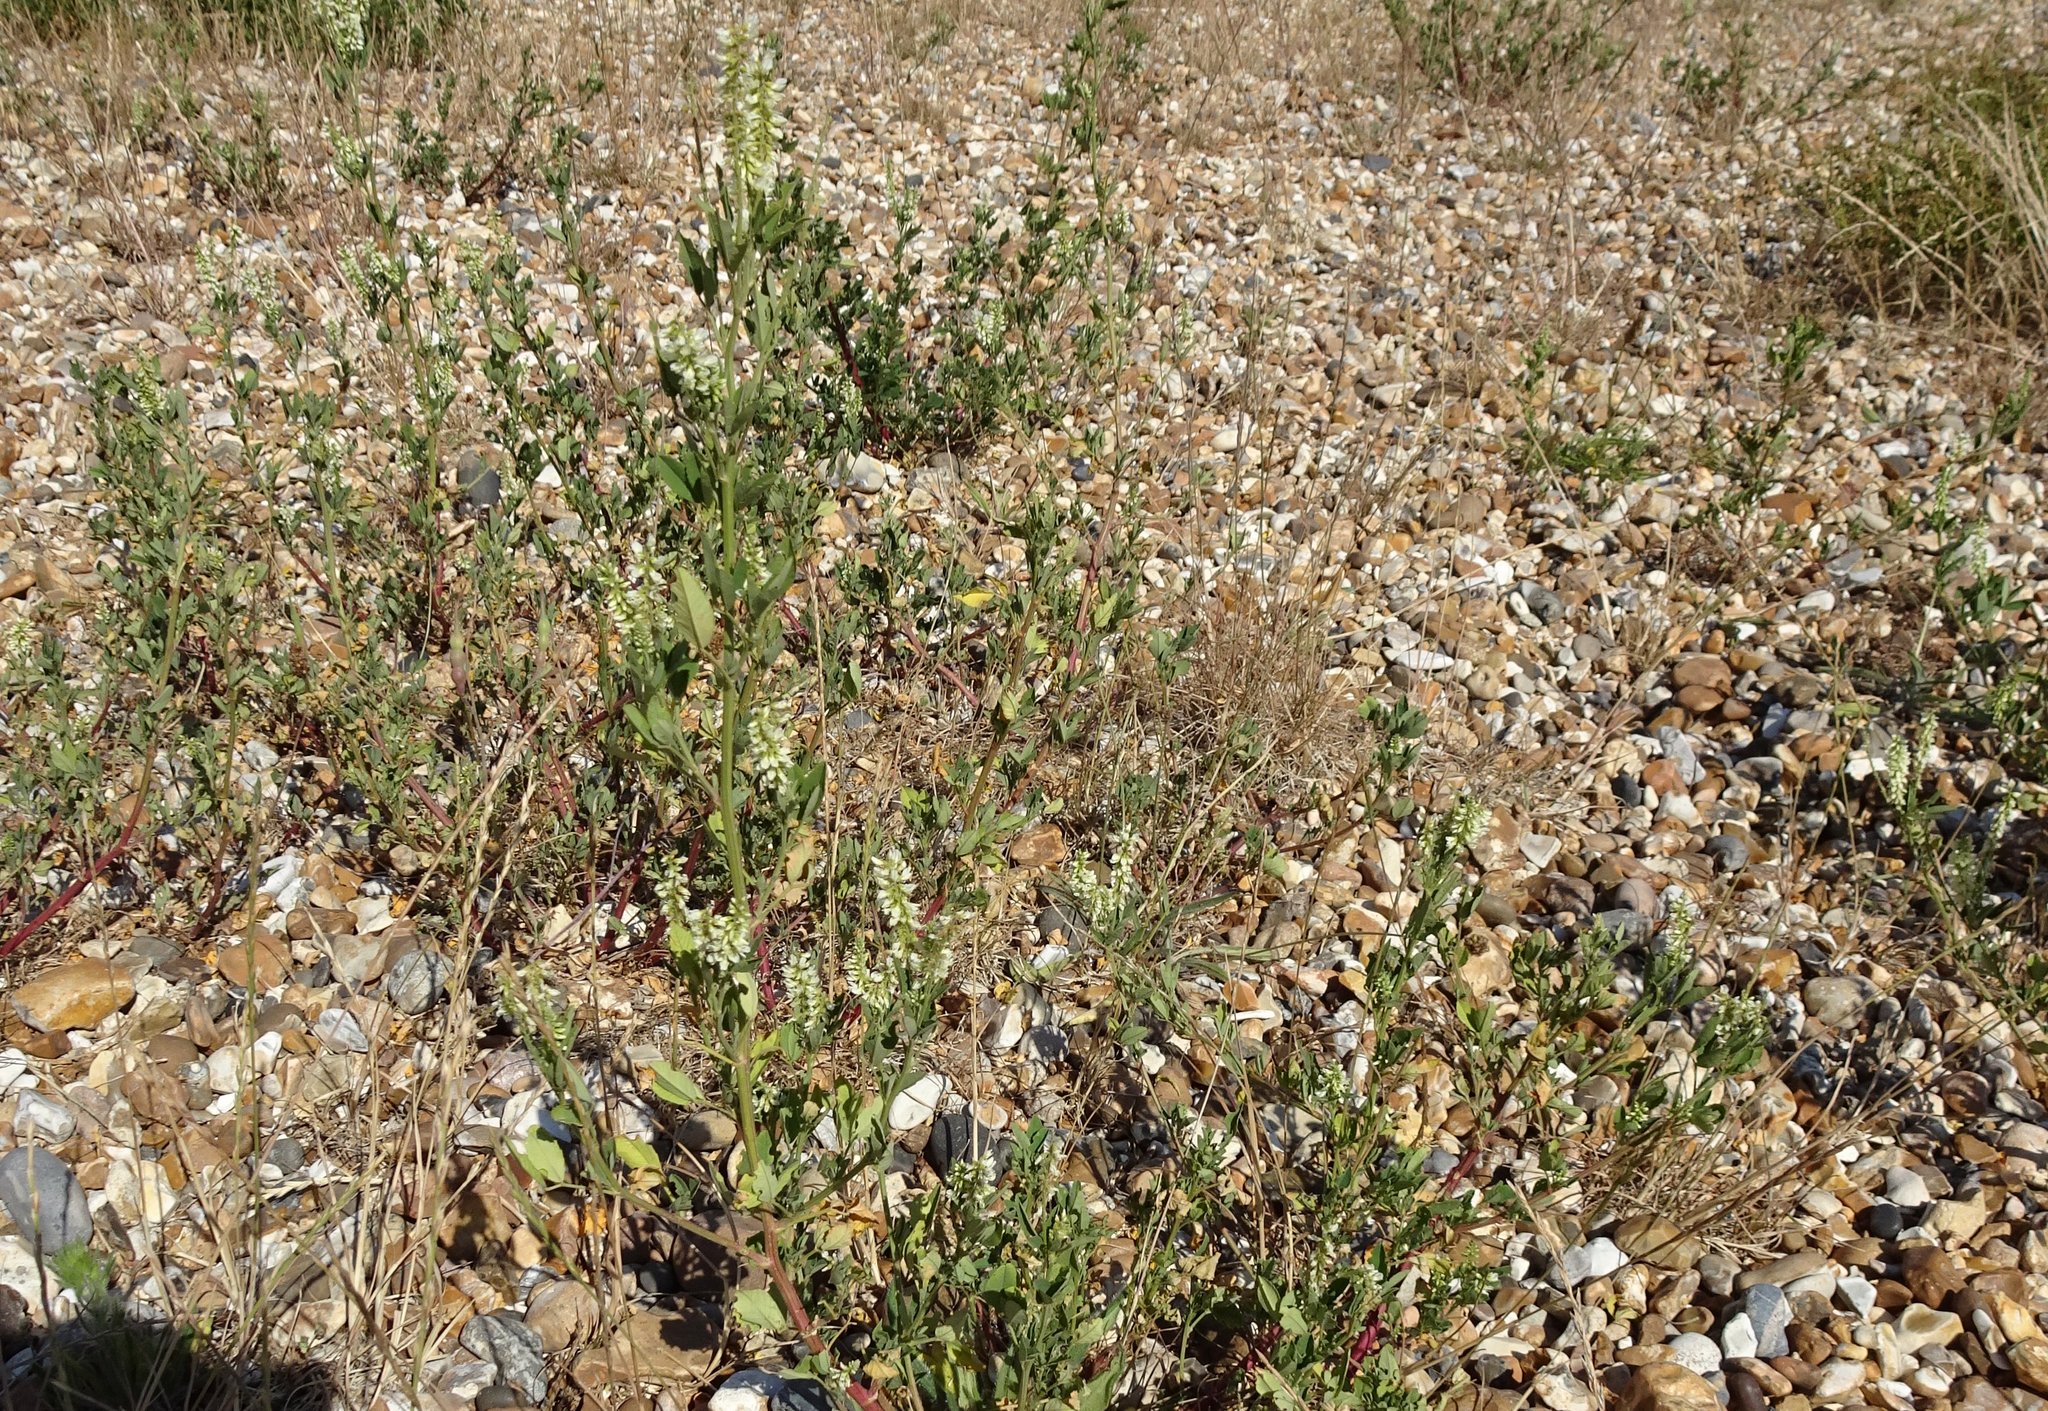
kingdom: Plantae
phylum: Tracheophyta
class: Magnoliopsida
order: Fabales
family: Fabaceae
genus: Melilotus
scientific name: Melilotus albus
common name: White melilot
